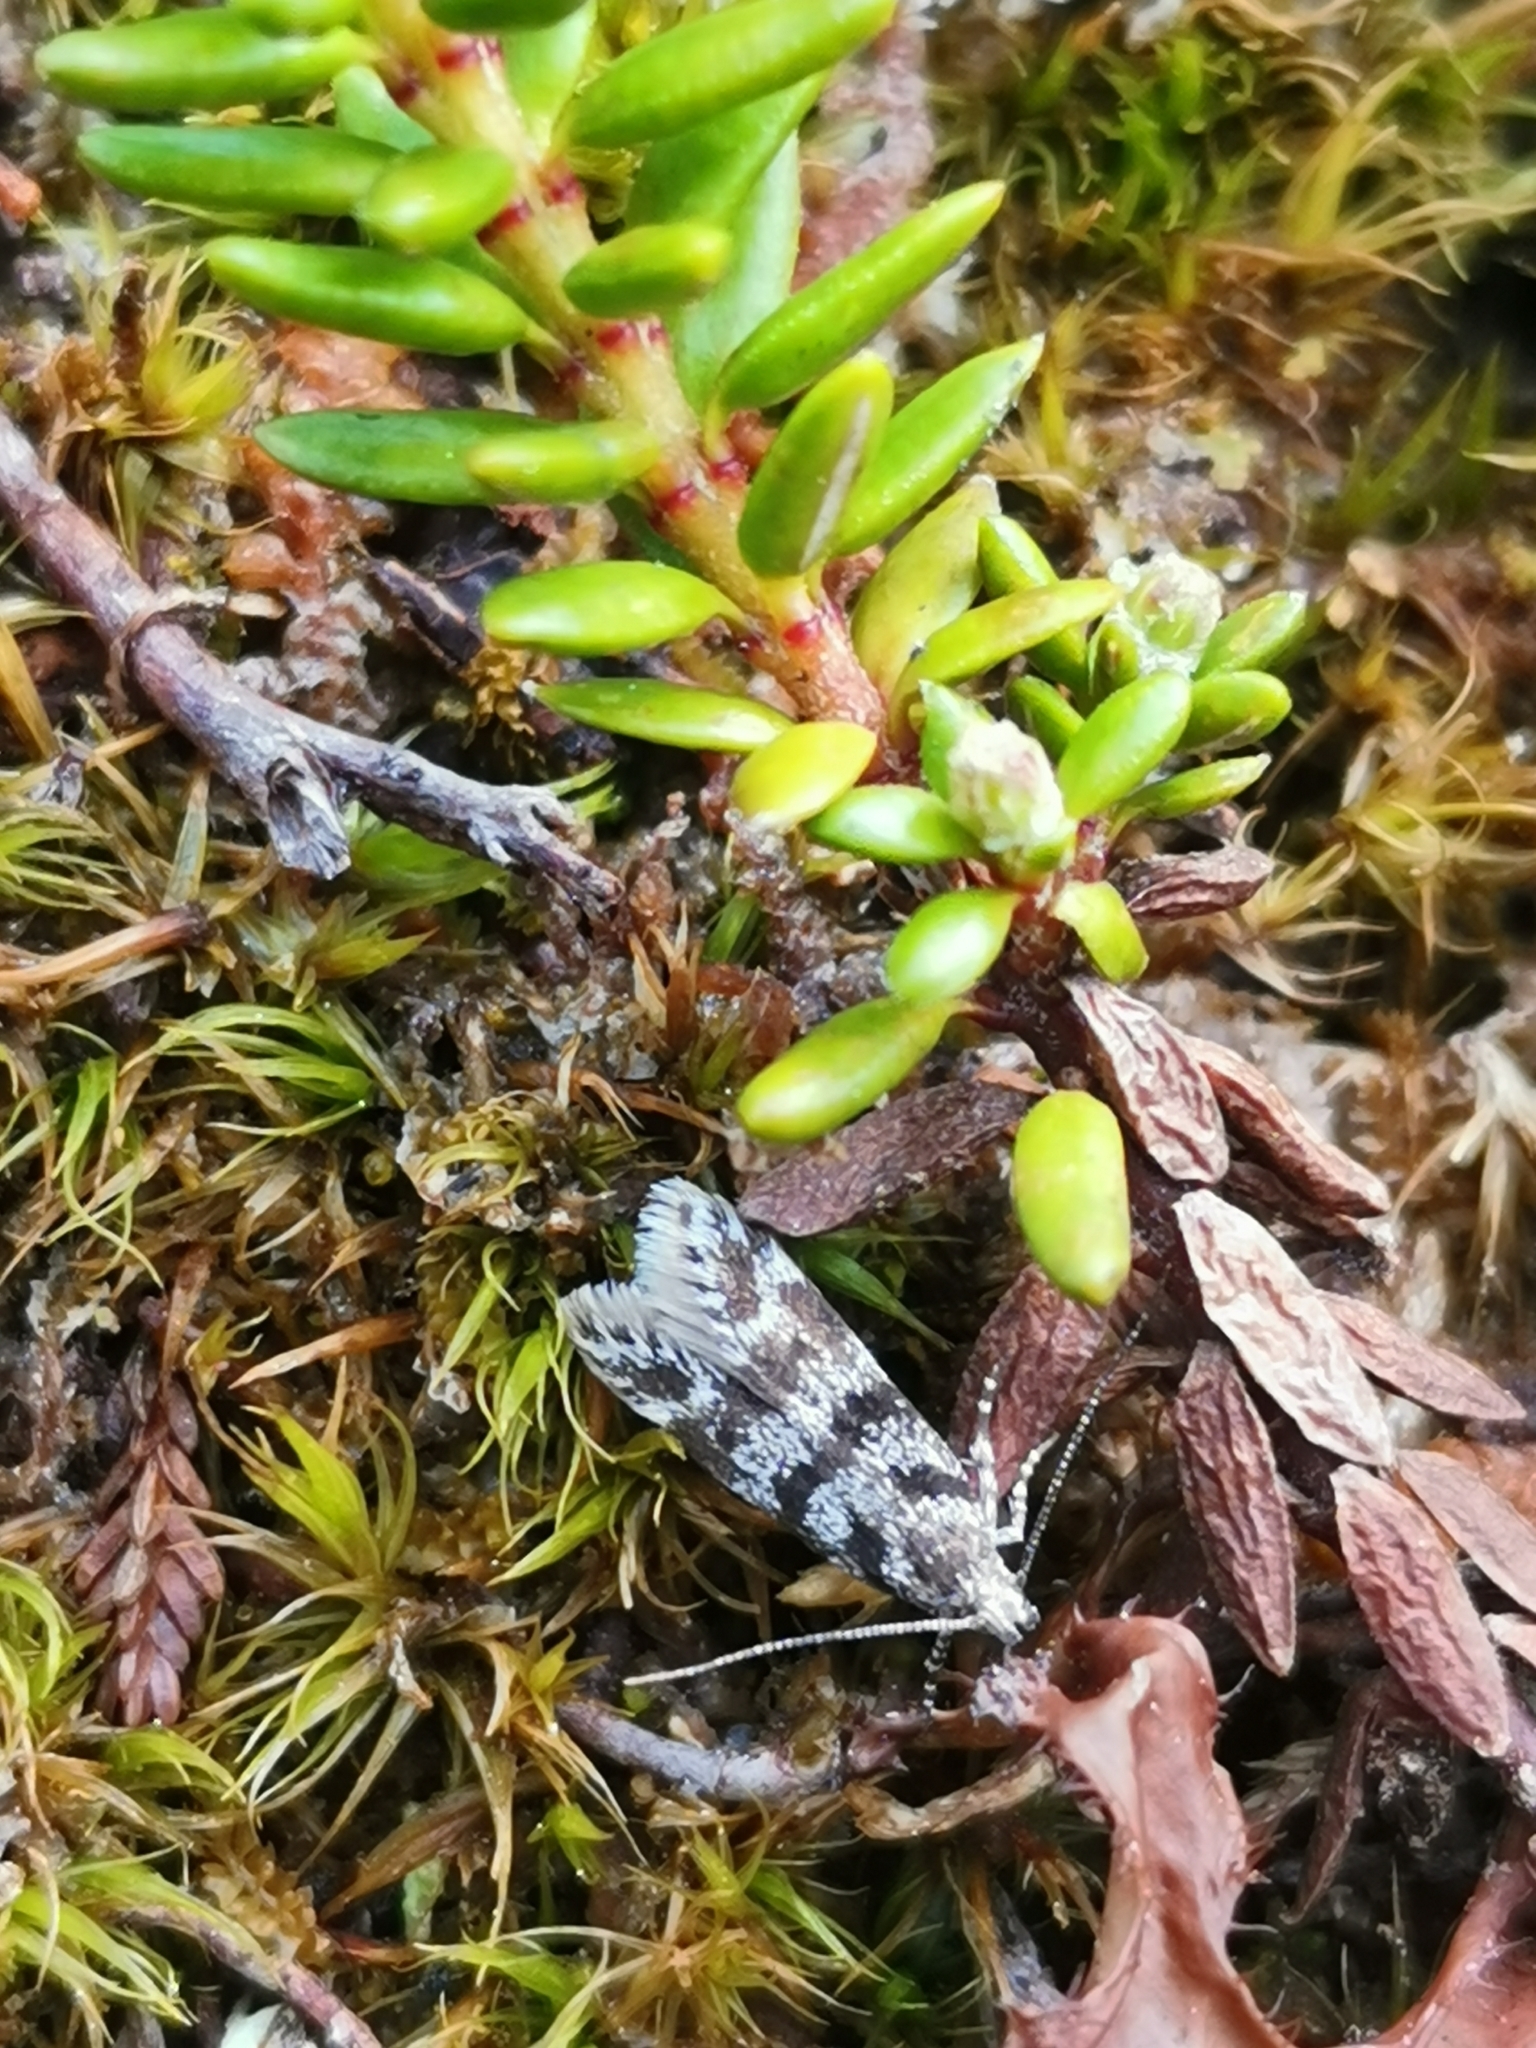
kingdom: Animalia
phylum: Arthropoda
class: Insecta
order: Lepidoptera
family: Gelechiidae
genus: Prolita
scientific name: Prolita sexpunctella
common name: Six-spot groundling
